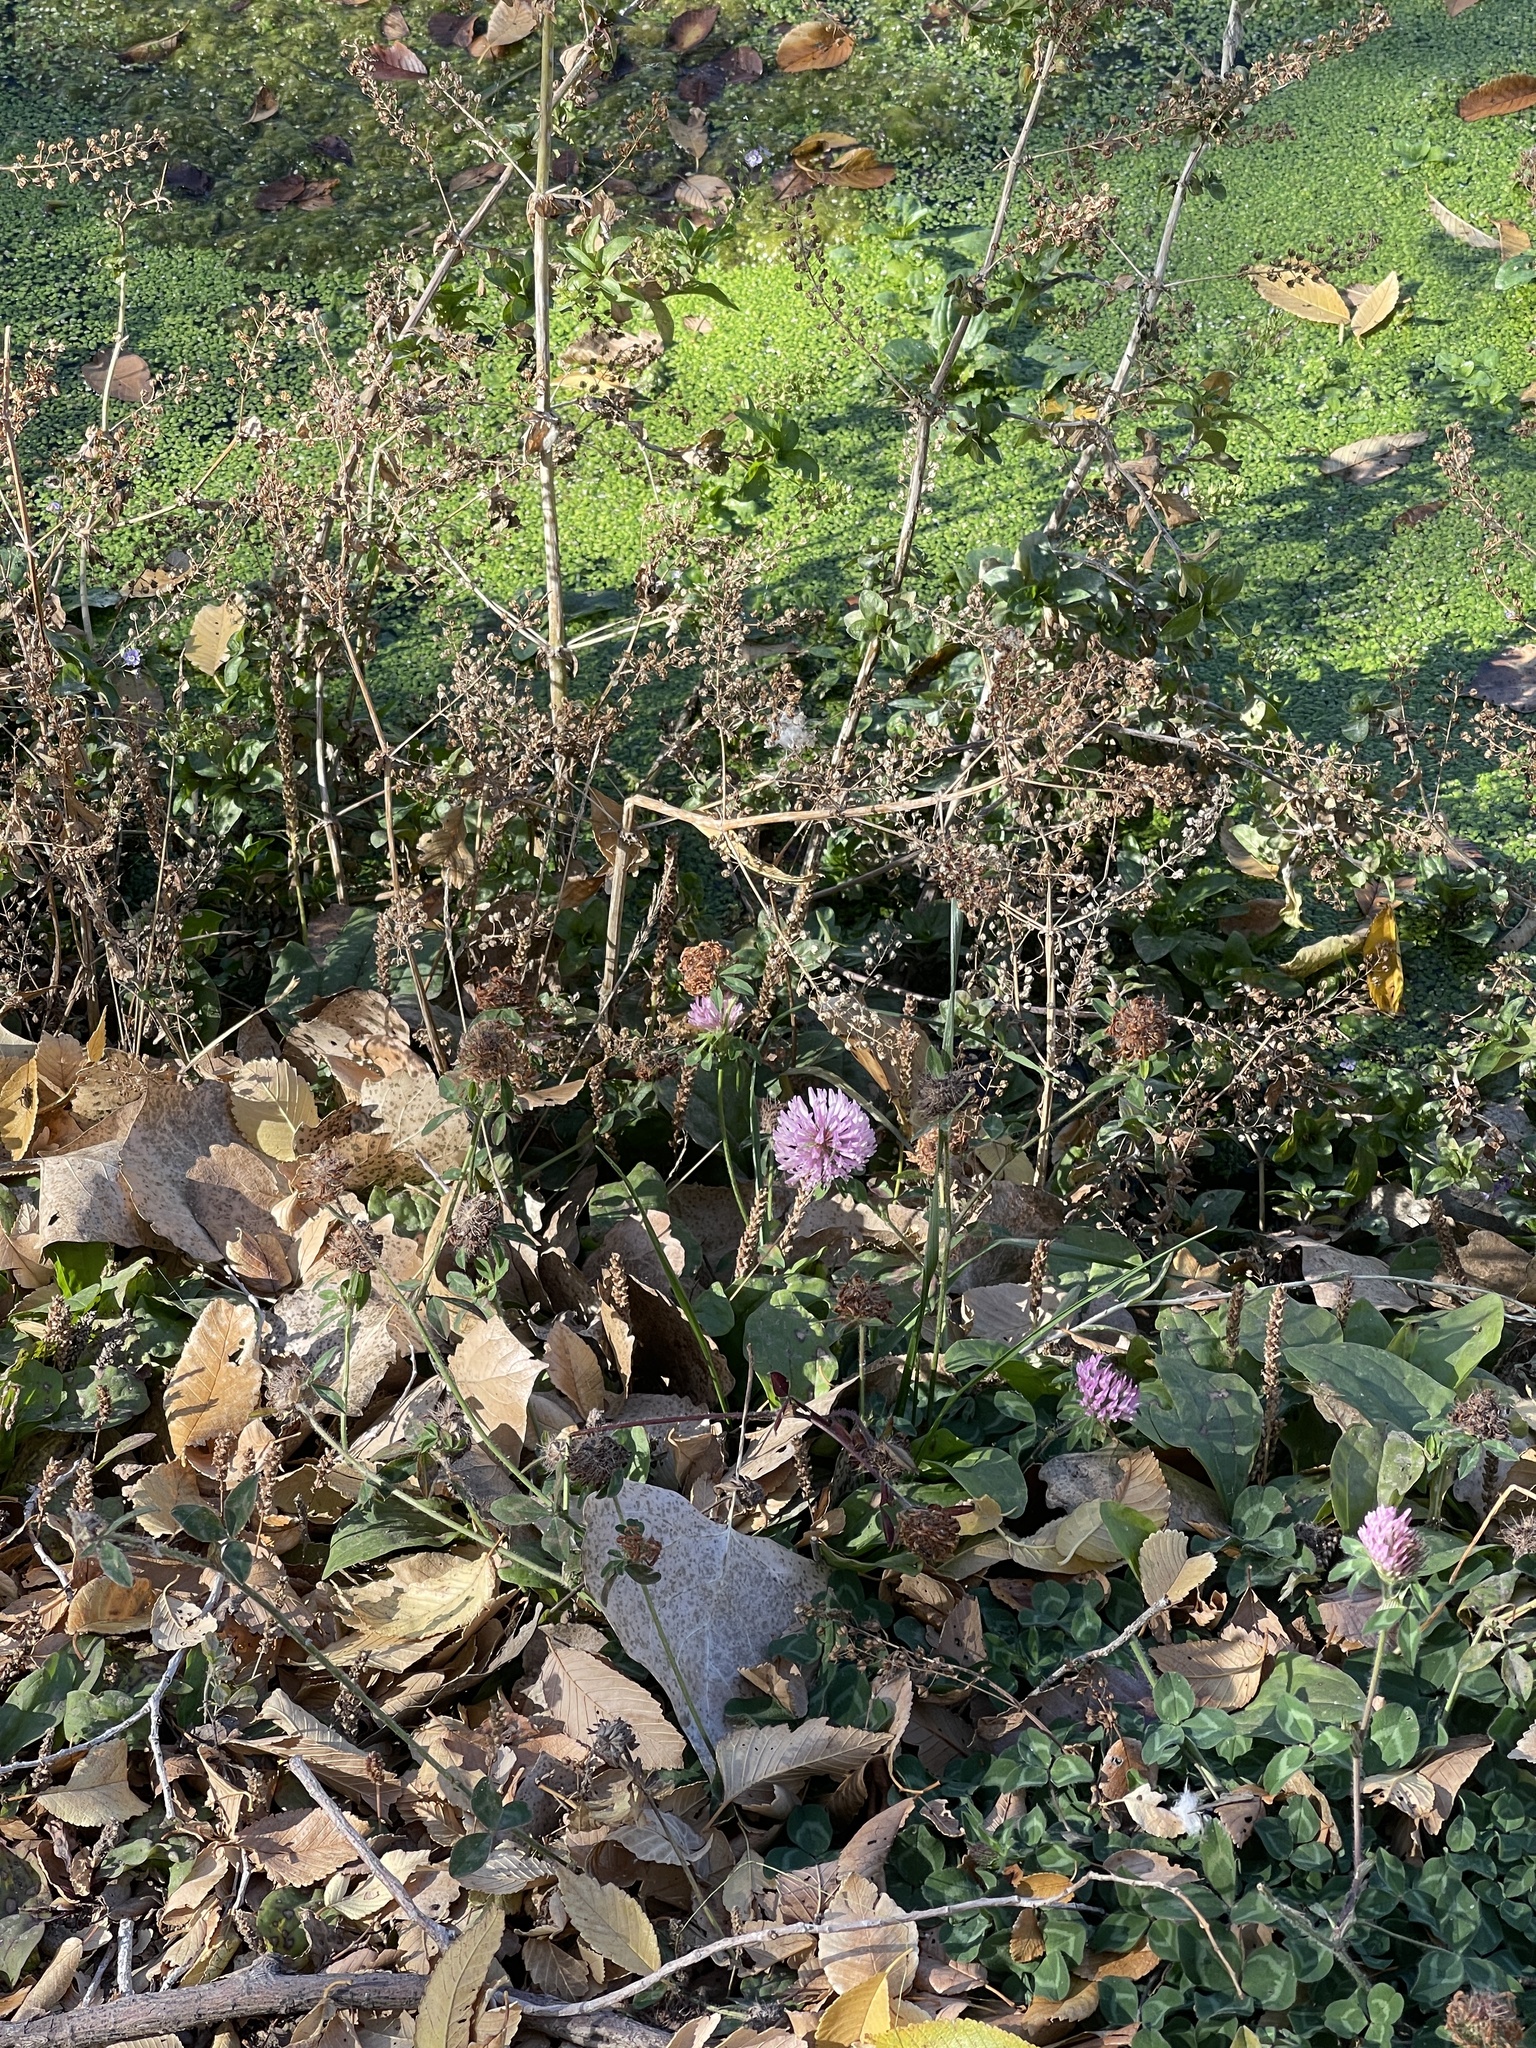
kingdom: Plantae
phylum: Tracheophyta
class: Magnoliopsida
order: Fabales
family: Fabaceae
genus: Trifolium
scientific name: Trifolium pratense
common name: Red clover
